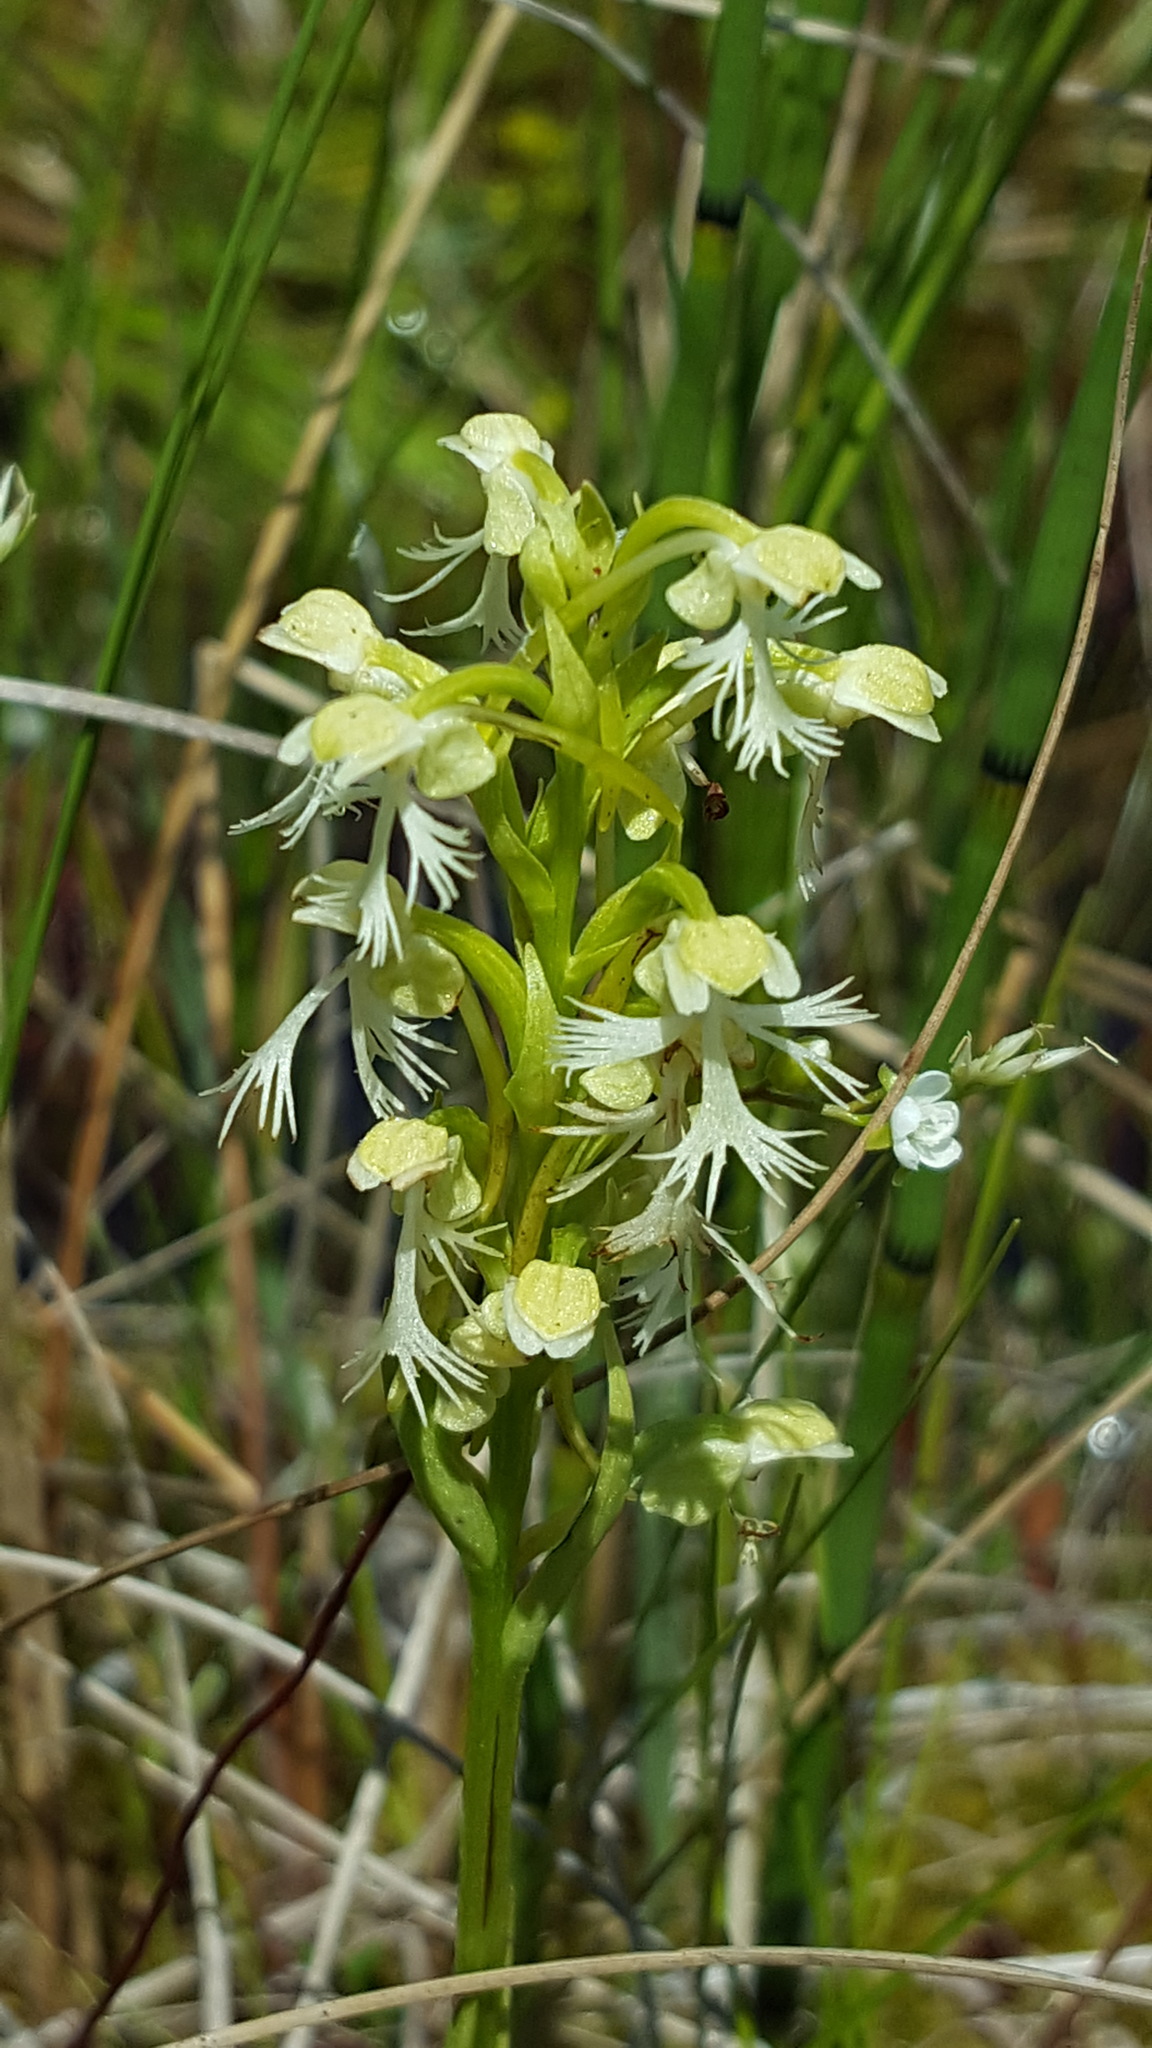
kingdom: Plantae
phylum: Tracheophyta
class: Liliopsida
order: Asparagales
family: Orchidaceae
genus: Platanthera
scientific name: Platanthera lacera
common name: Green fringed orchid
